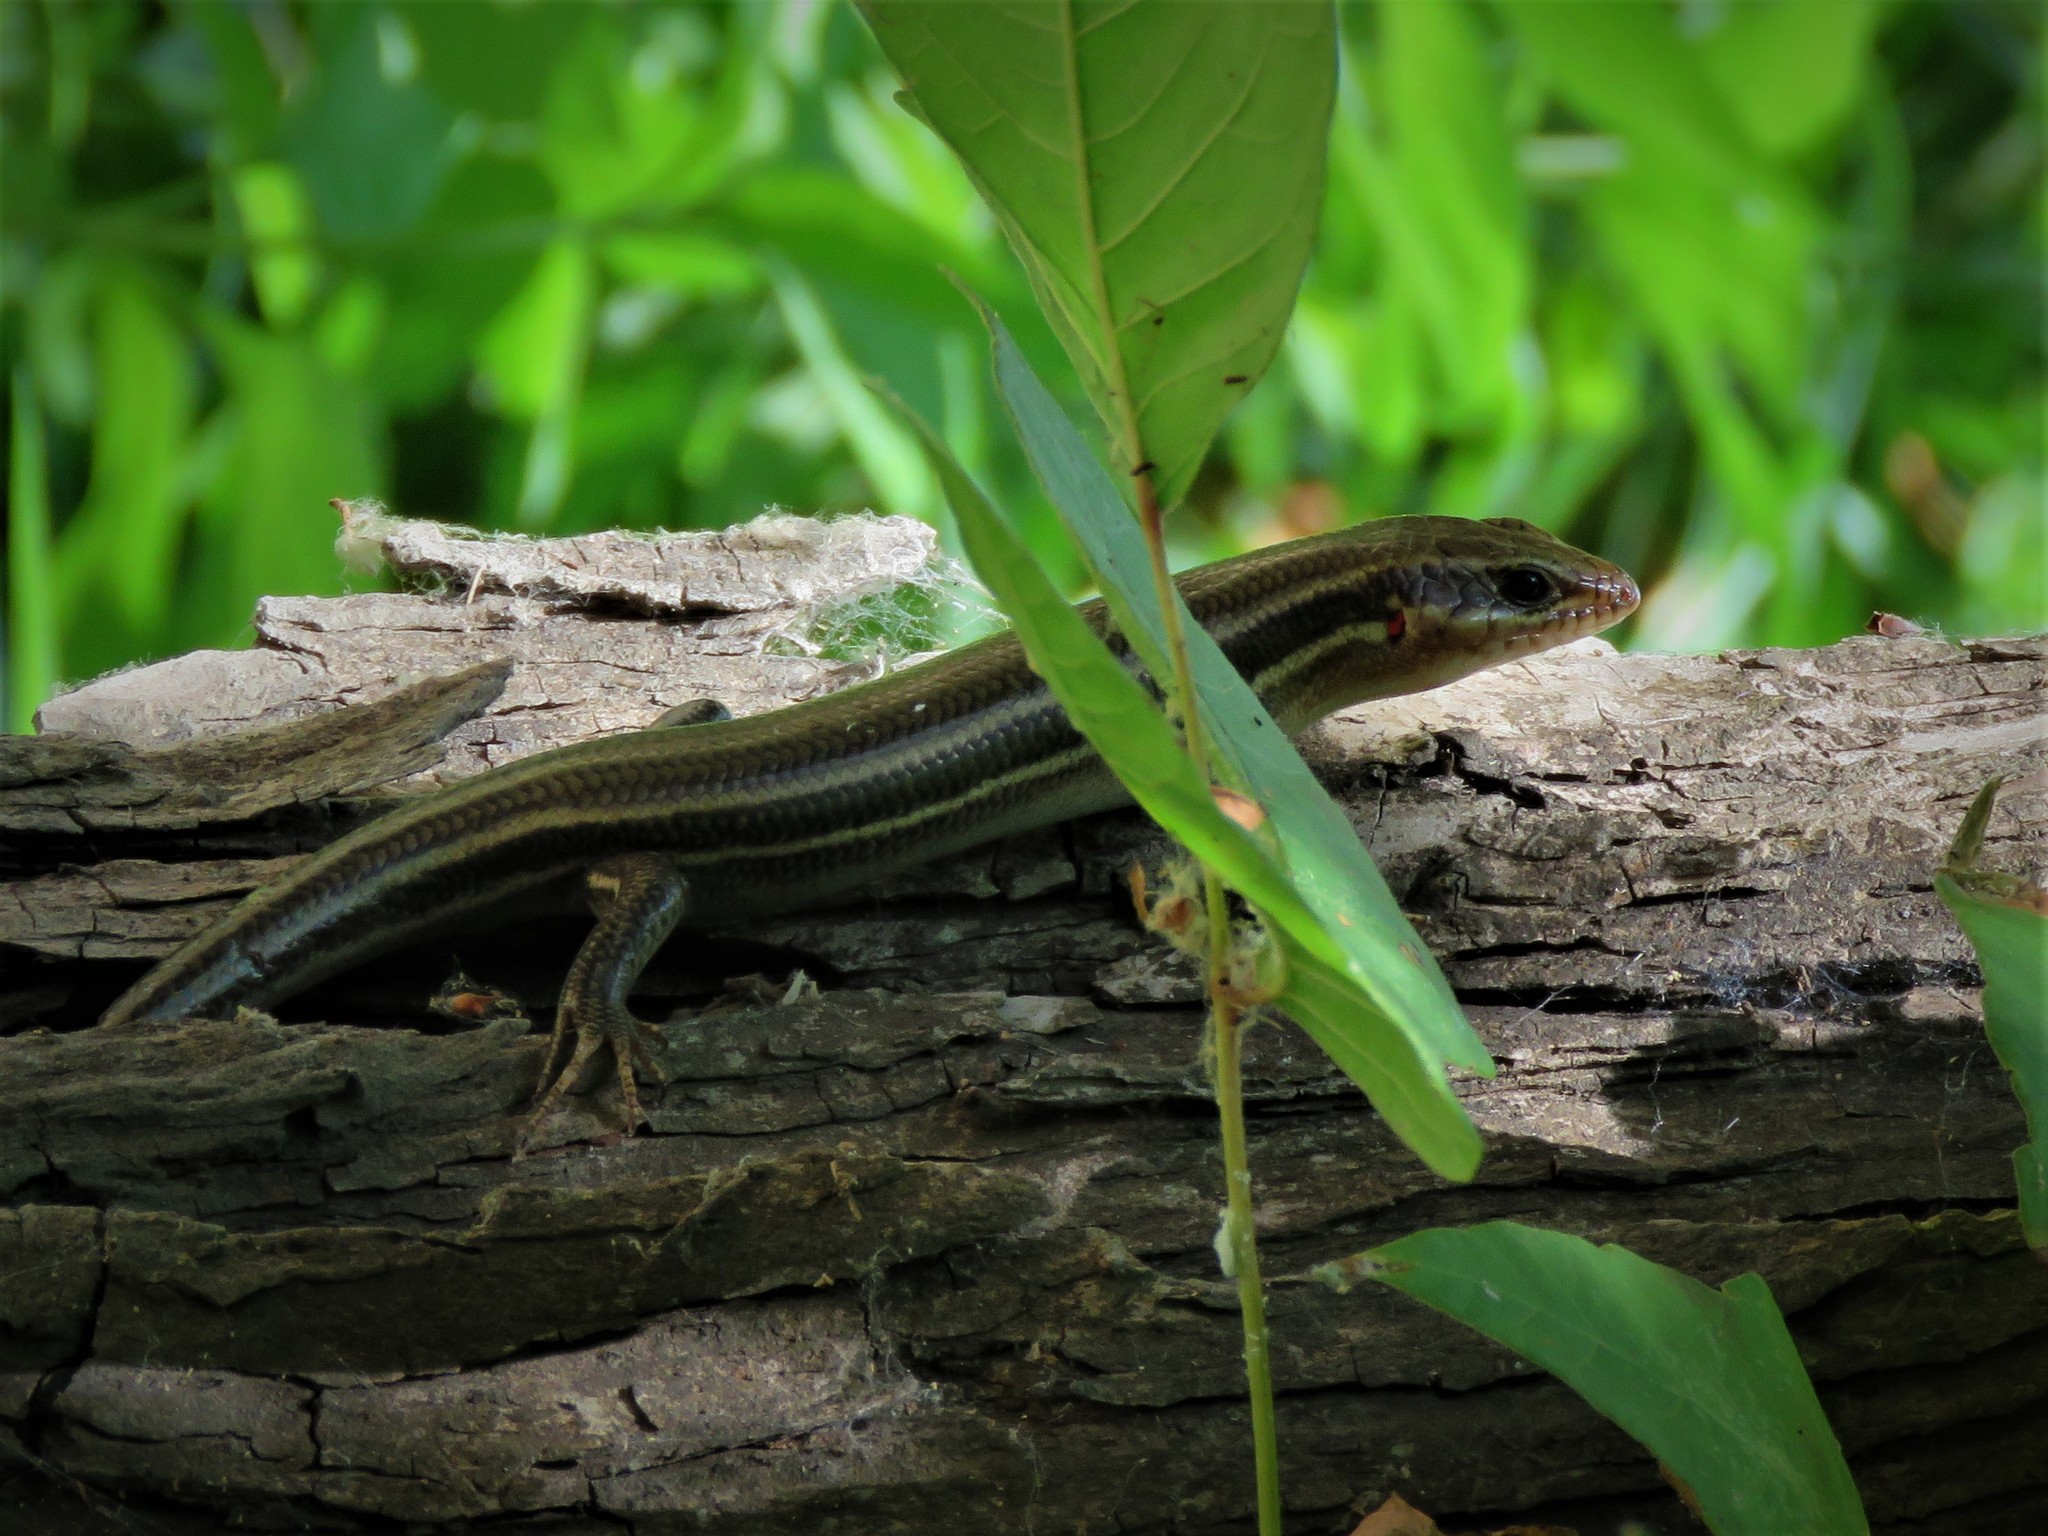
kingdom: Animalia
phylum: Chordata
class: Squamata
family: Scincidae
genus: Plestiodon
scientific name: Plestiodon fasciatus
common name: Five-lined skink
